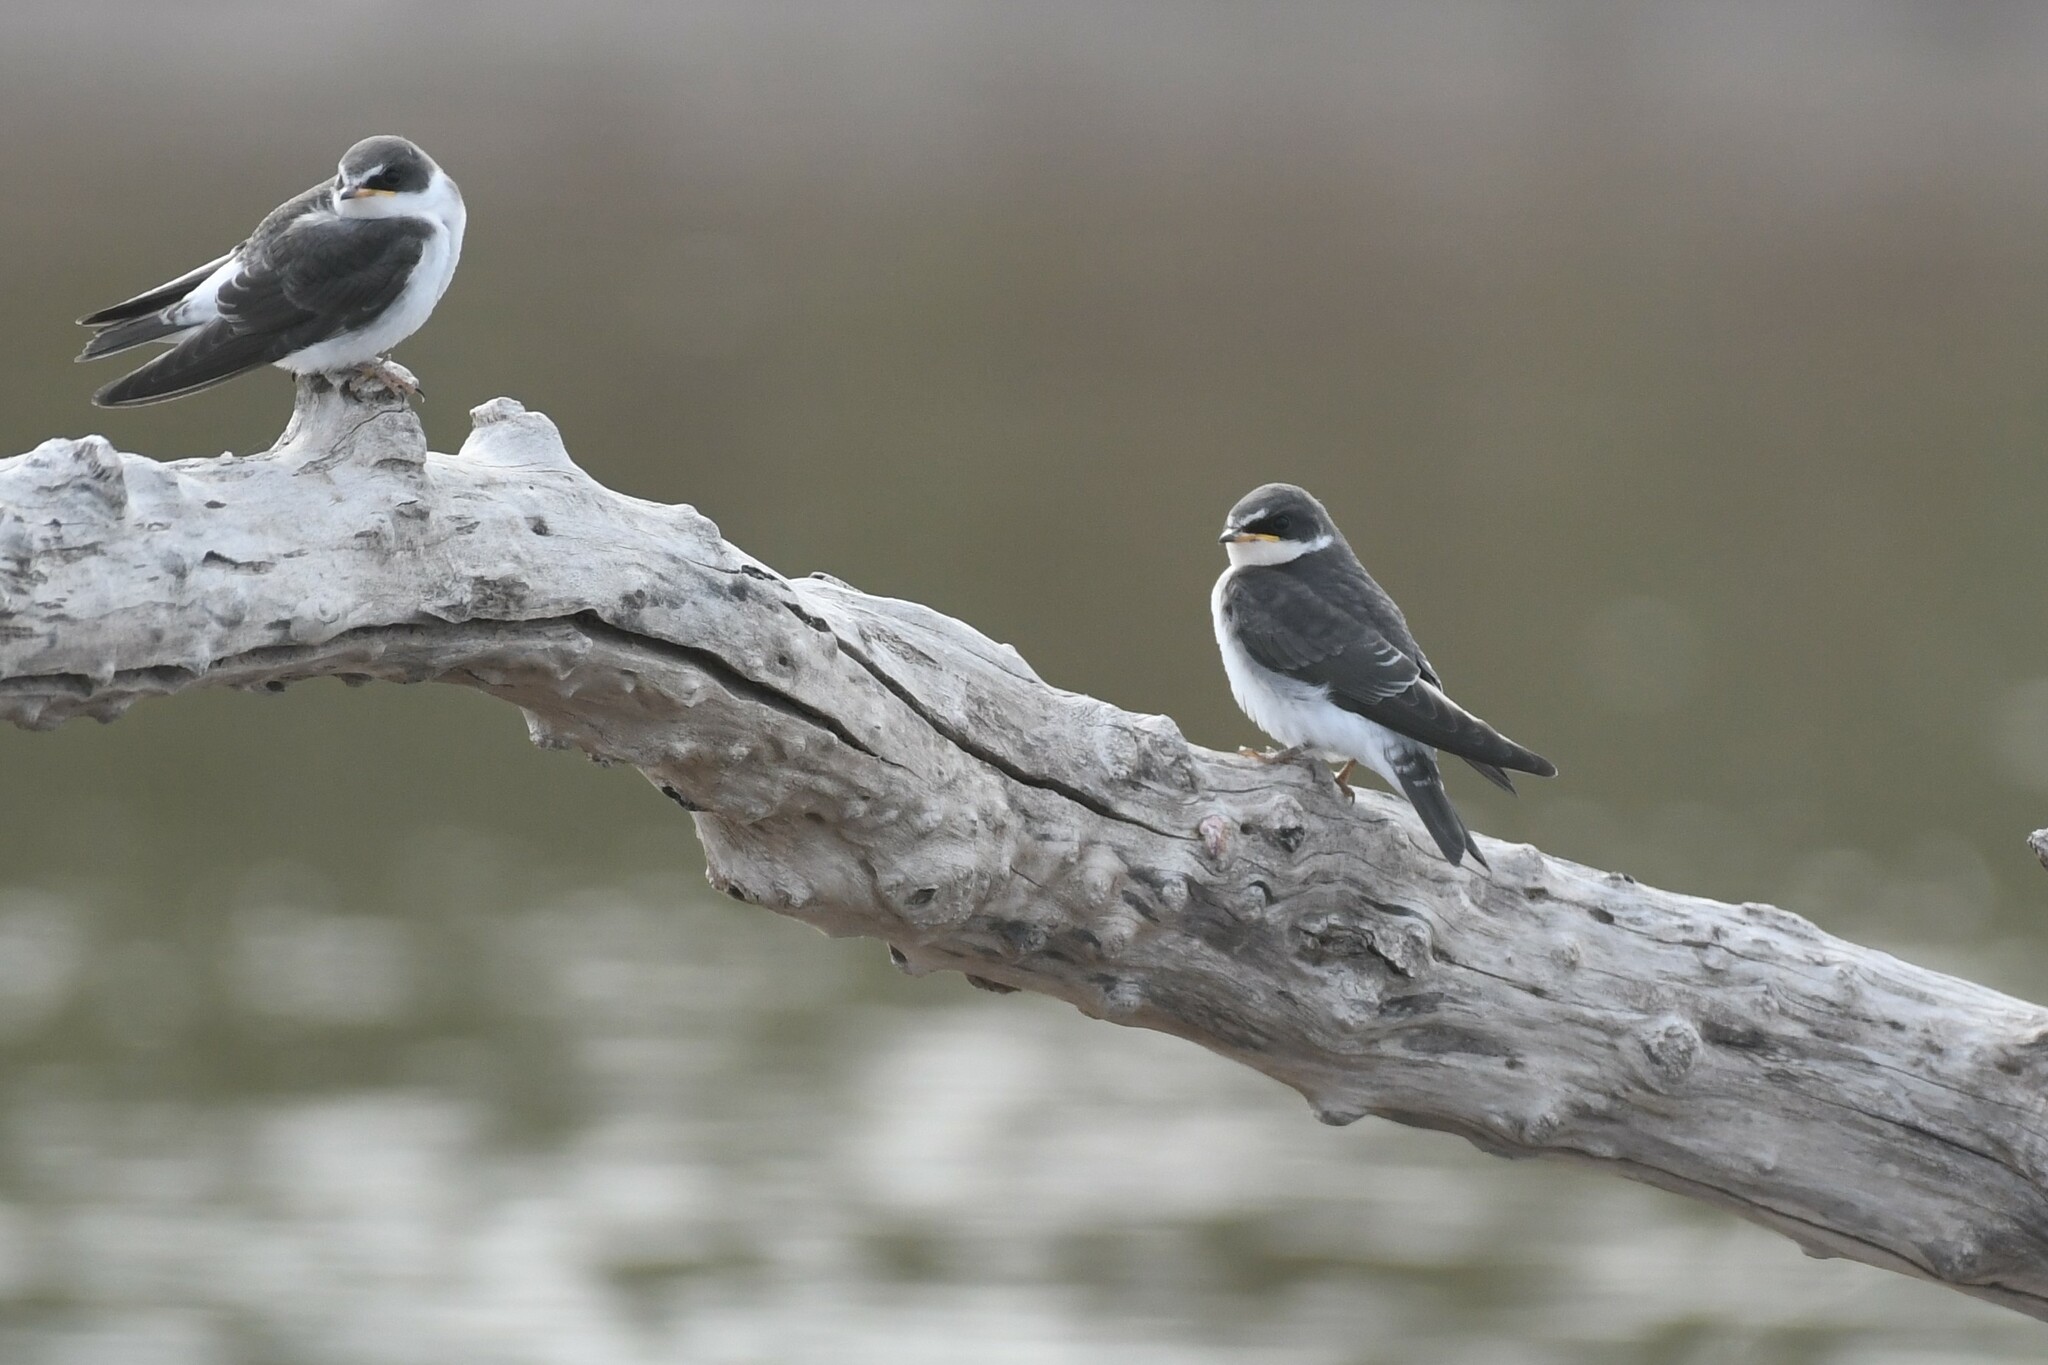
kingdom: Animalia
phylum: Chordata
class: Aves
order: Passeriformes
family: Hirundinidae
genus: Tachycineta
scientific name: Tachycineta leucorrhoa
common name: White-rumped swallow
